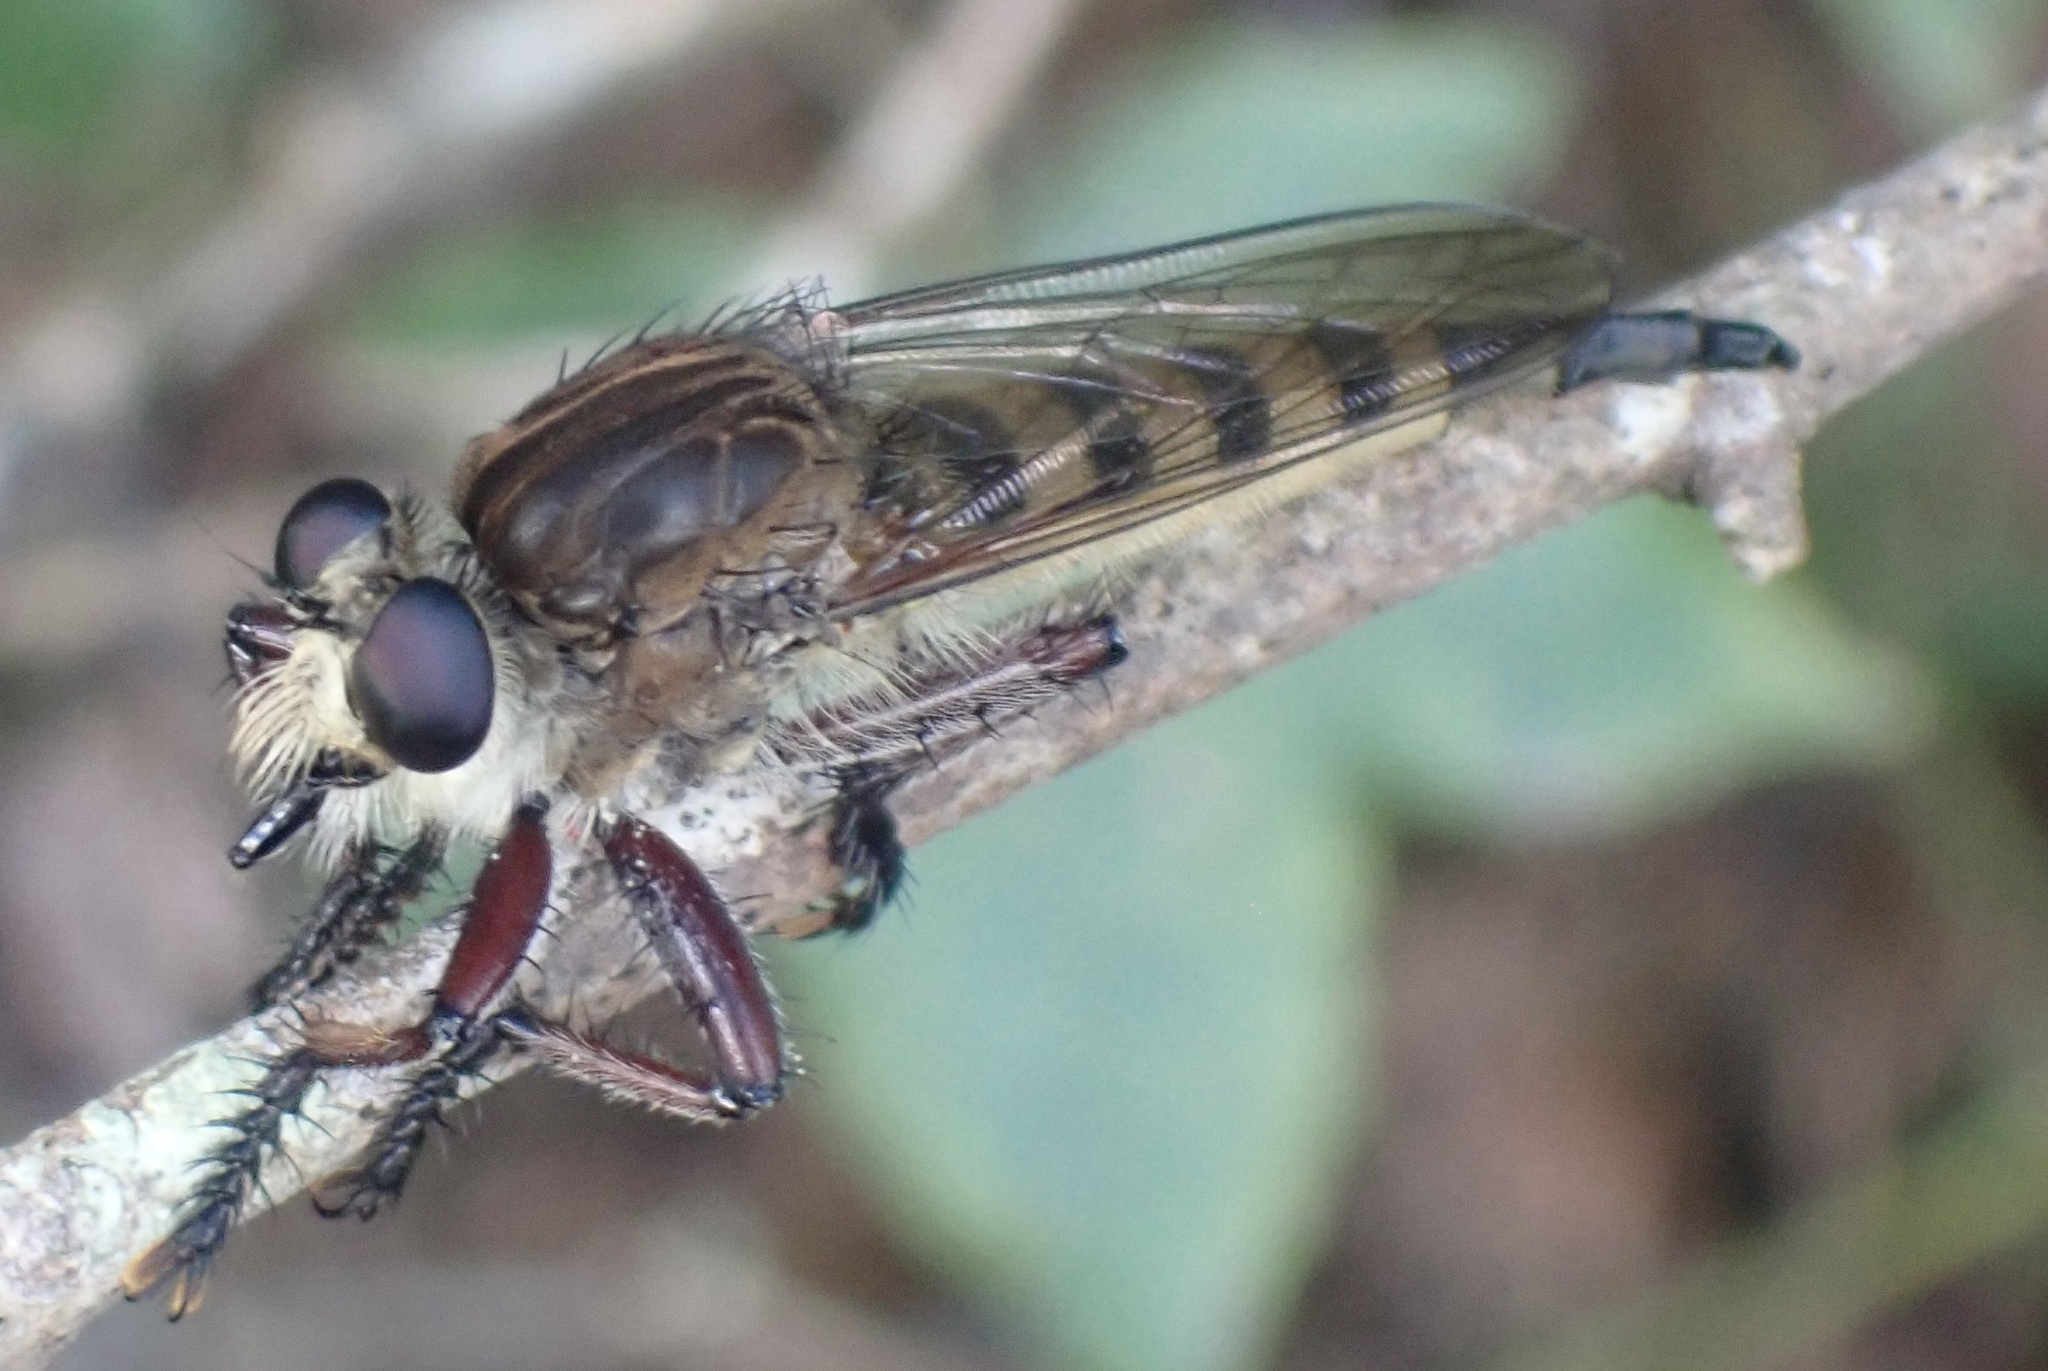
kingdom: Animalia
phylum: Arthropoda
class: Insecta
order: Diptera
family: Asilidae
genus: Promachus
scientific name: Promachus hinei
